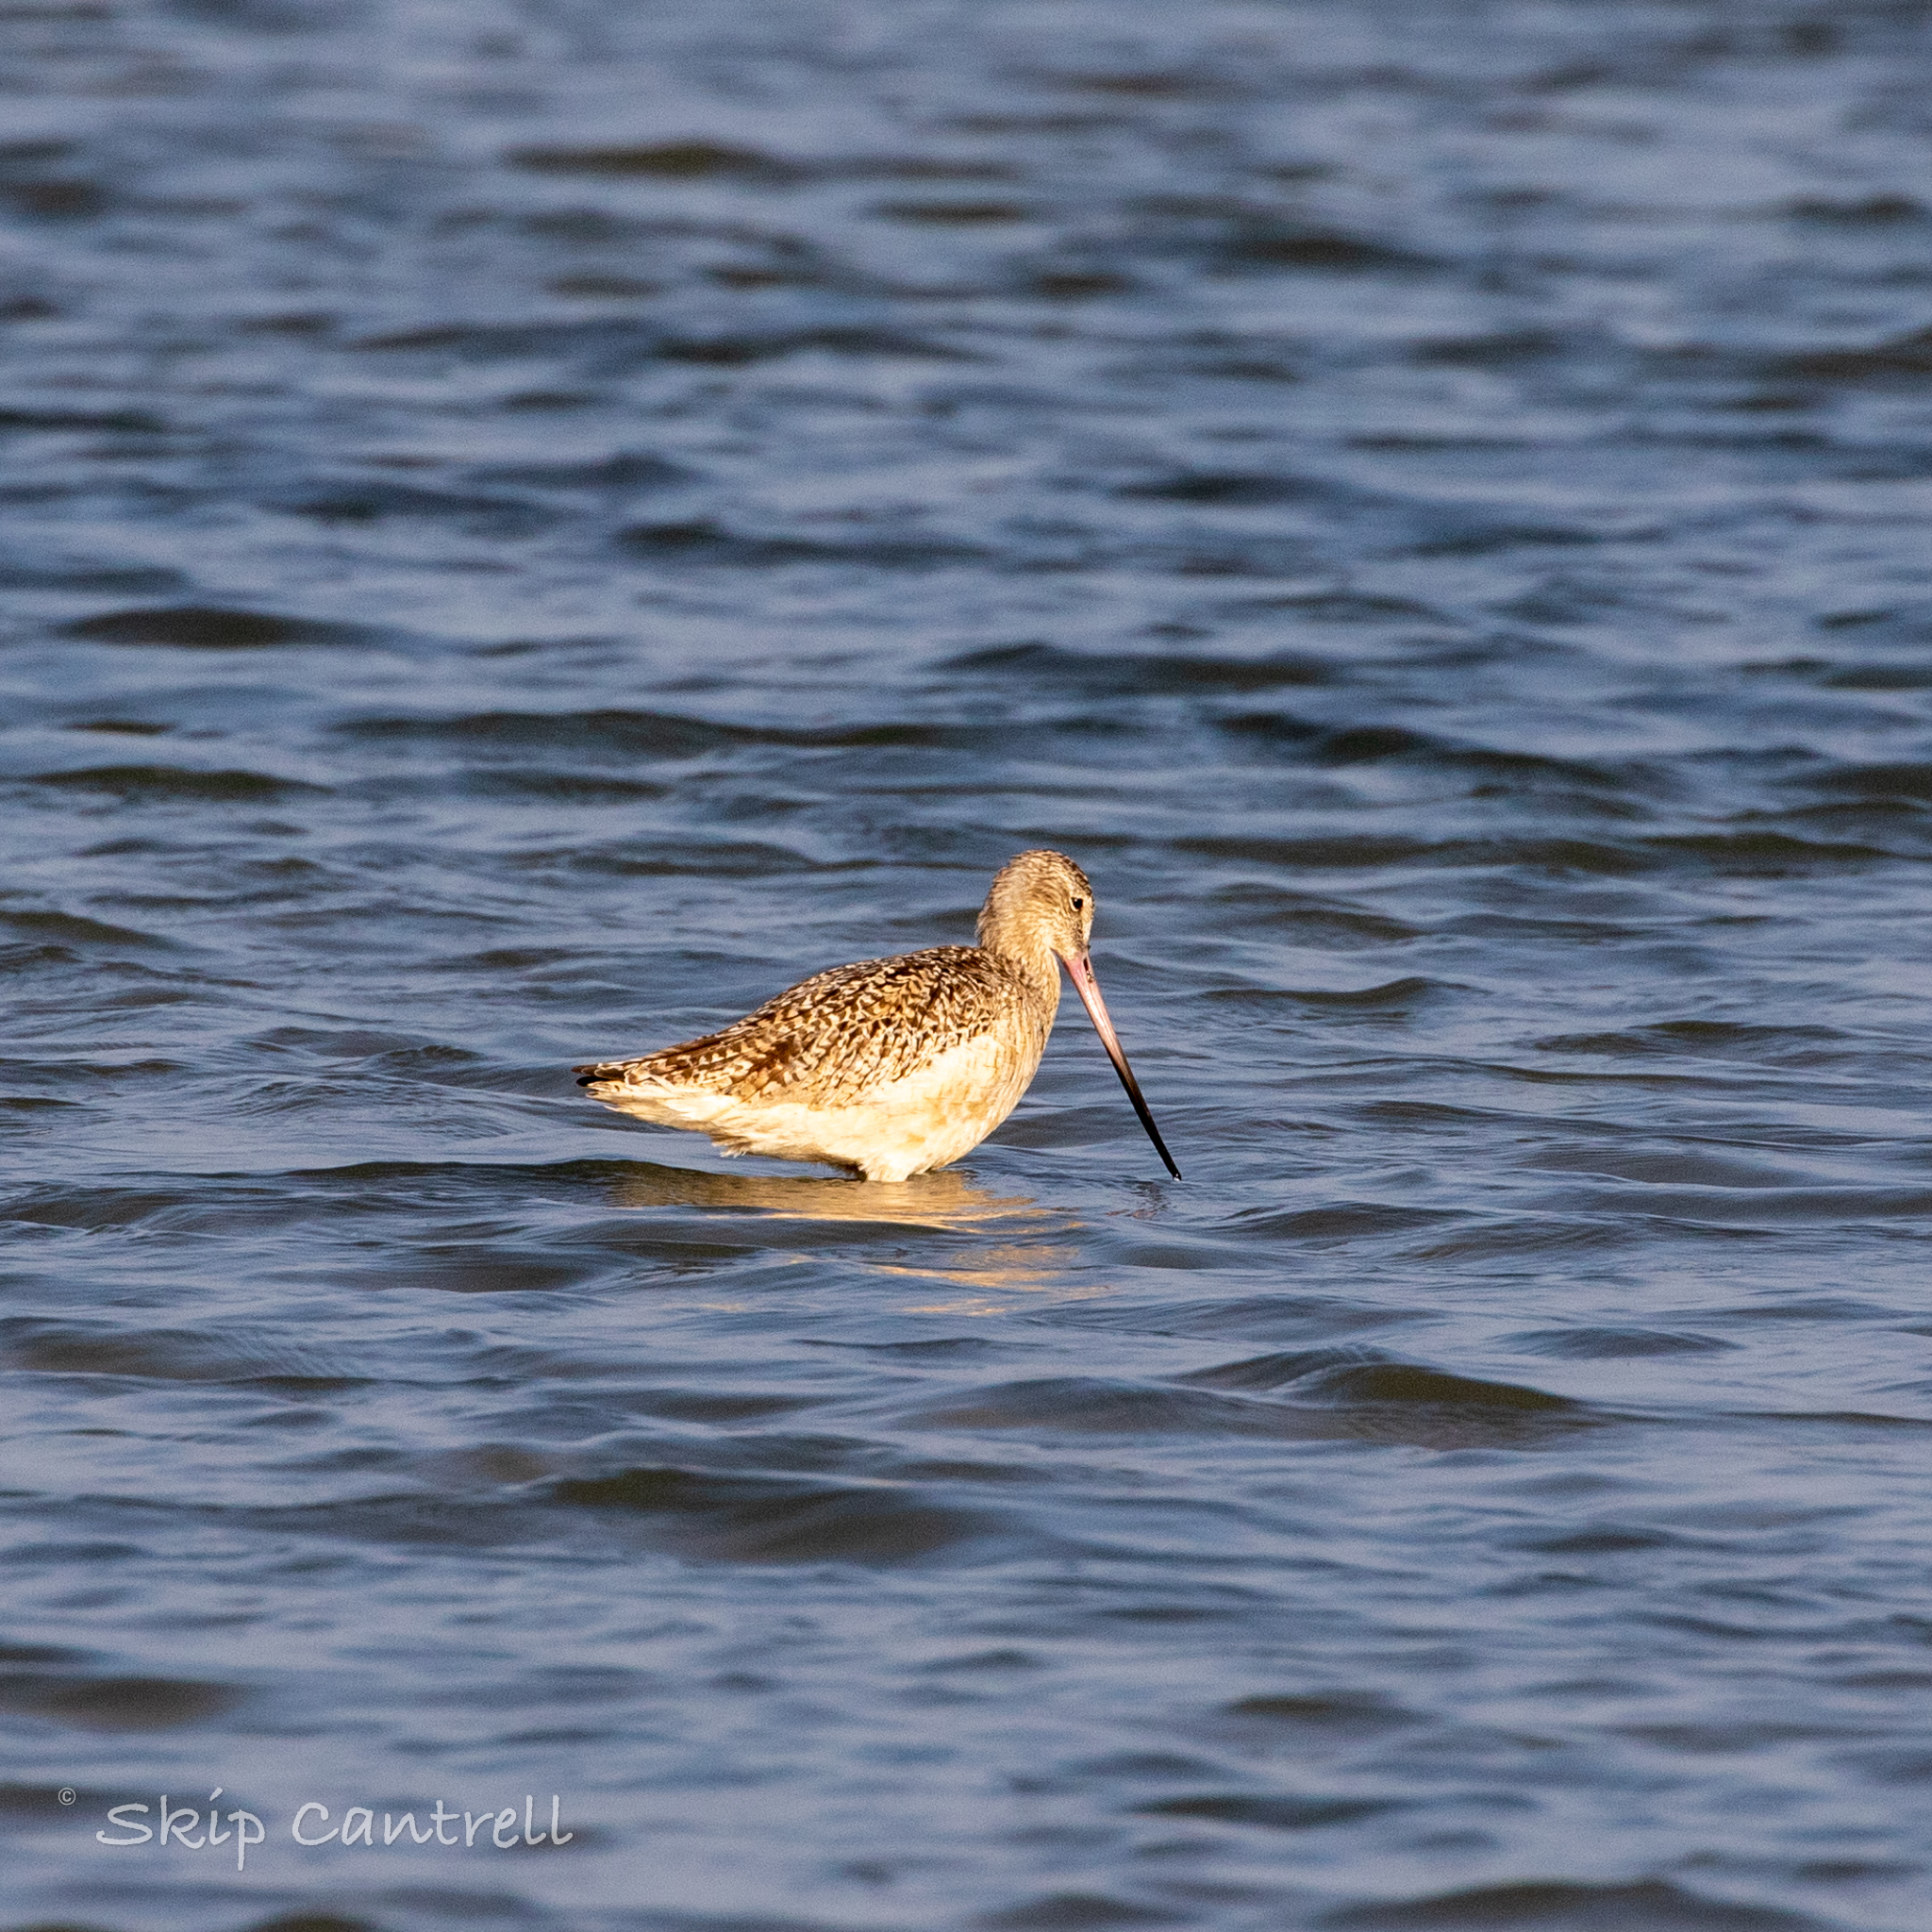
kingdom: Animalia
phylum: Chordata
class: Aves
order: Charadriiformes
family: Scolopacidae
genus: Limosa
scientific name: Limosa fedoa
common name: Marbled godwit
